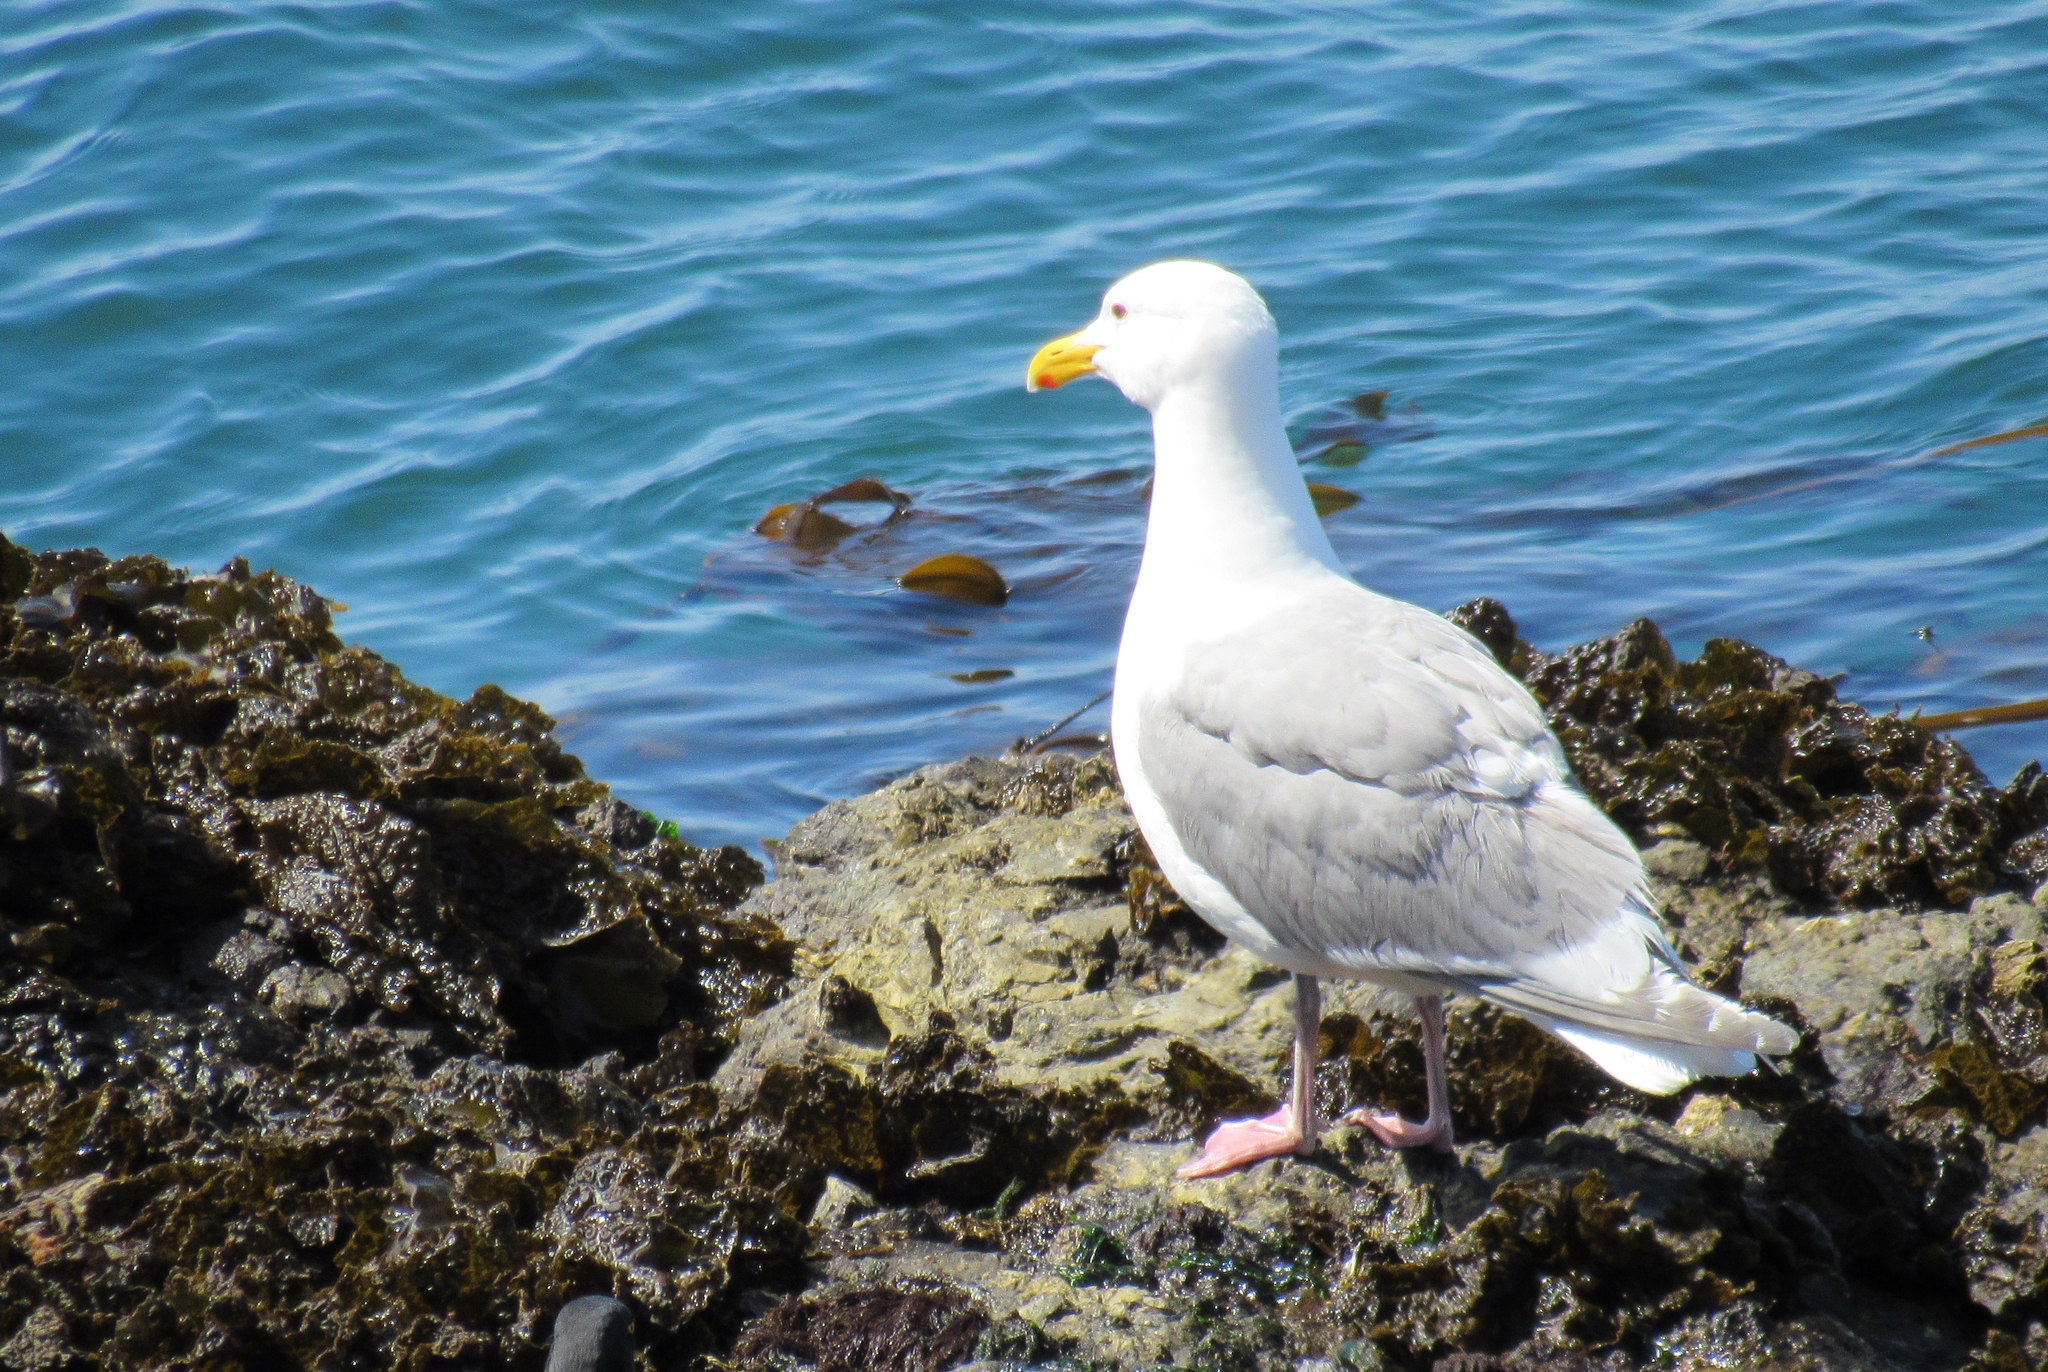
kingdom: Animalia
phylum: Chordata
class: Aves
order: Charadriiformes
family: Laridae
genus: Larus
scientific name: Larus glaucescens
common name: Glaucous-winged gull
